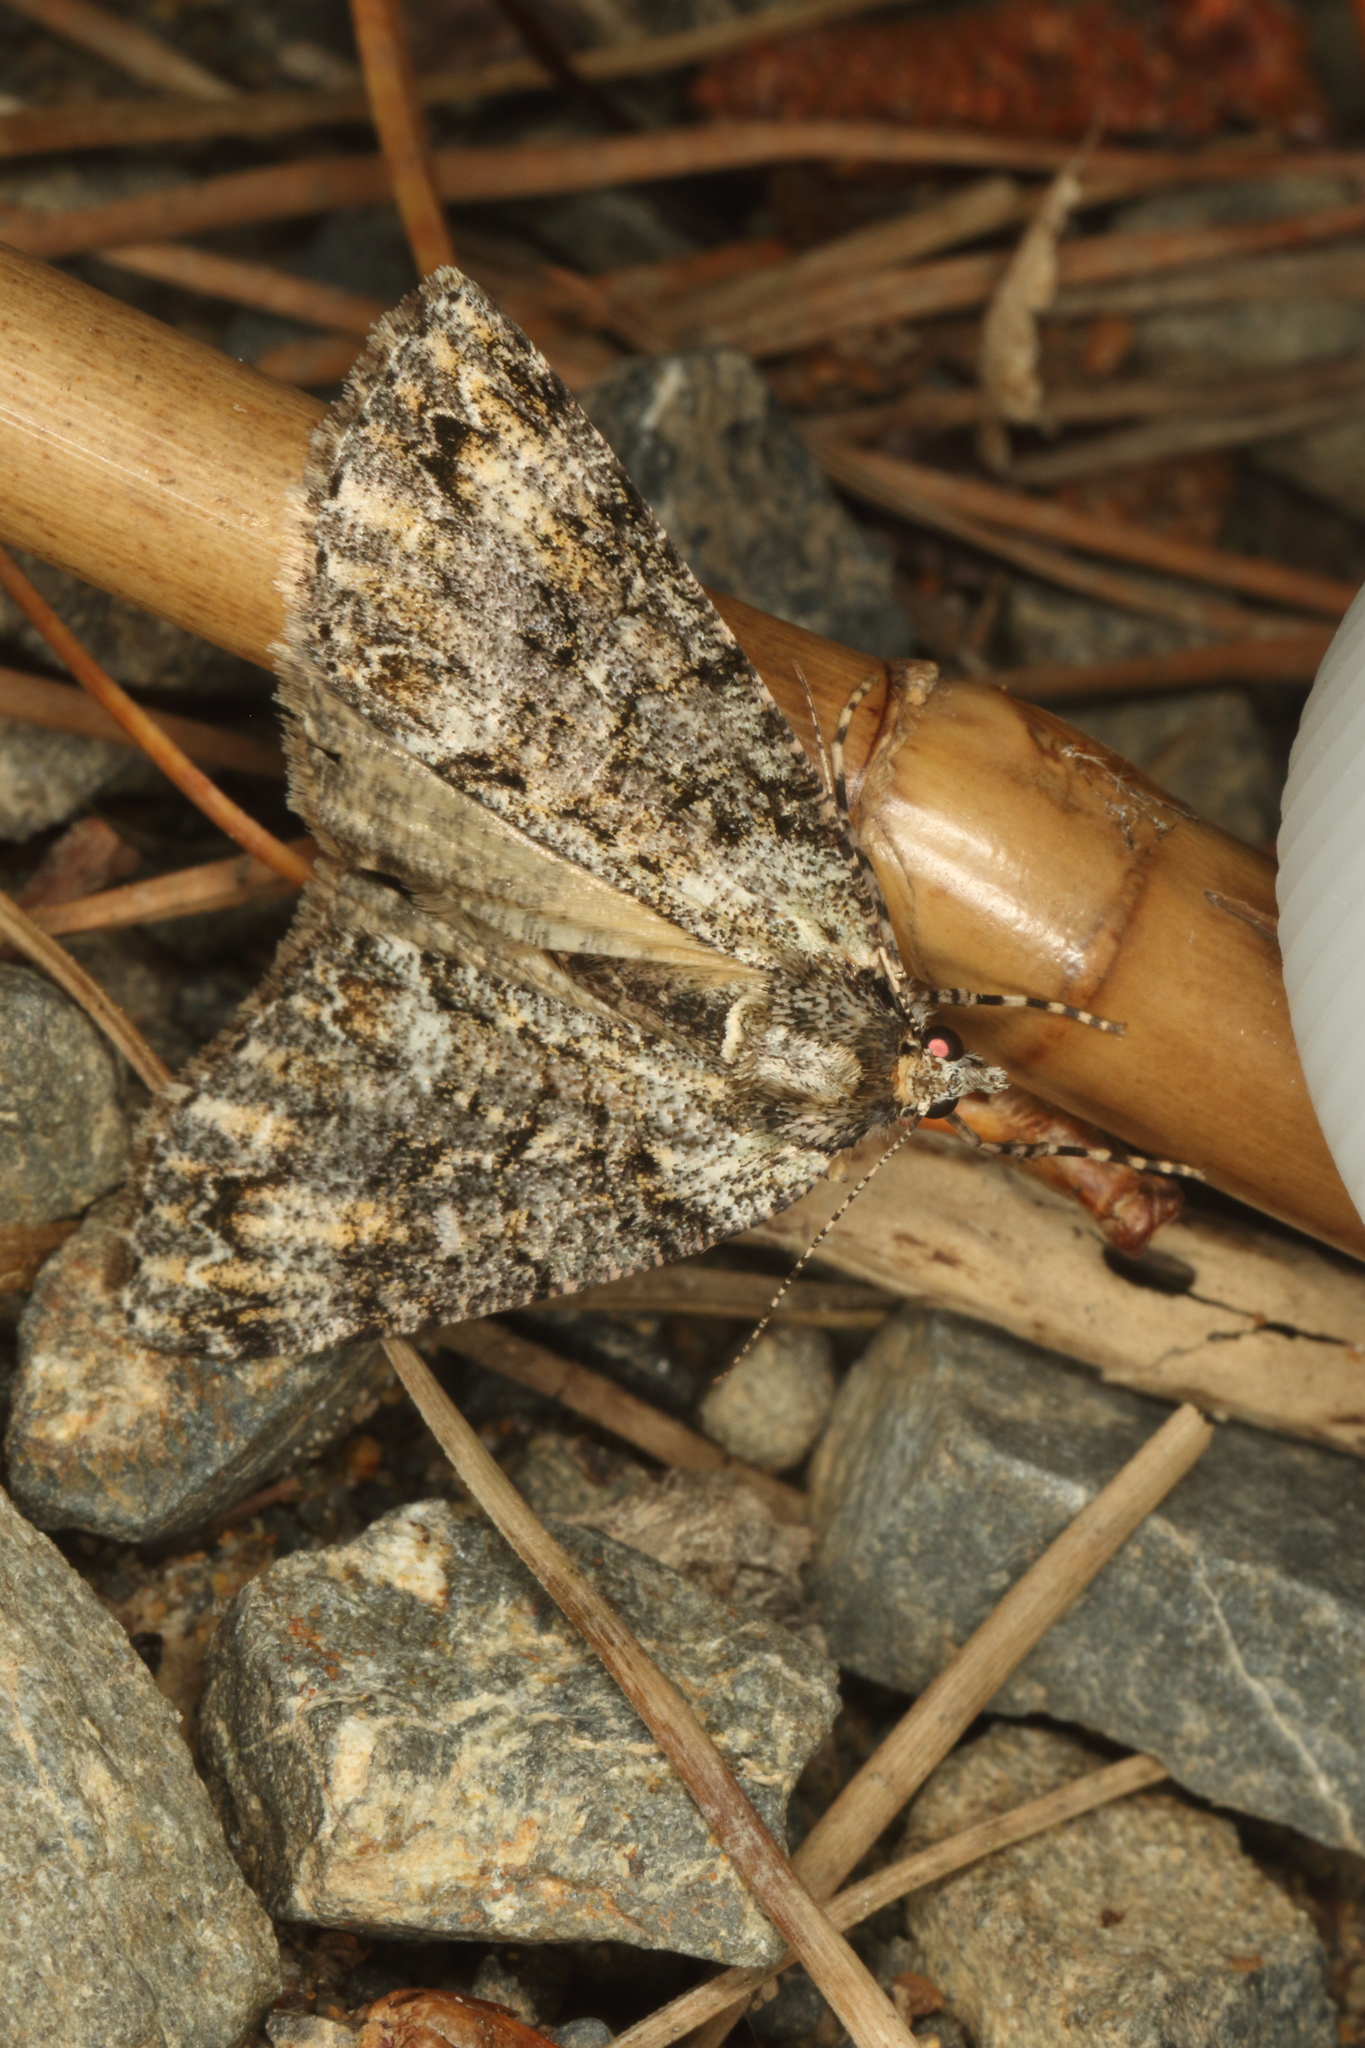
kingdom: Animalia
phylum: Arthropoda
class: Insecta
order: Lepidoptera
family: Geometridae
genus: Pseudocoremia
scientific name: Pseudocoremia suavis
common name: Common forest looper
